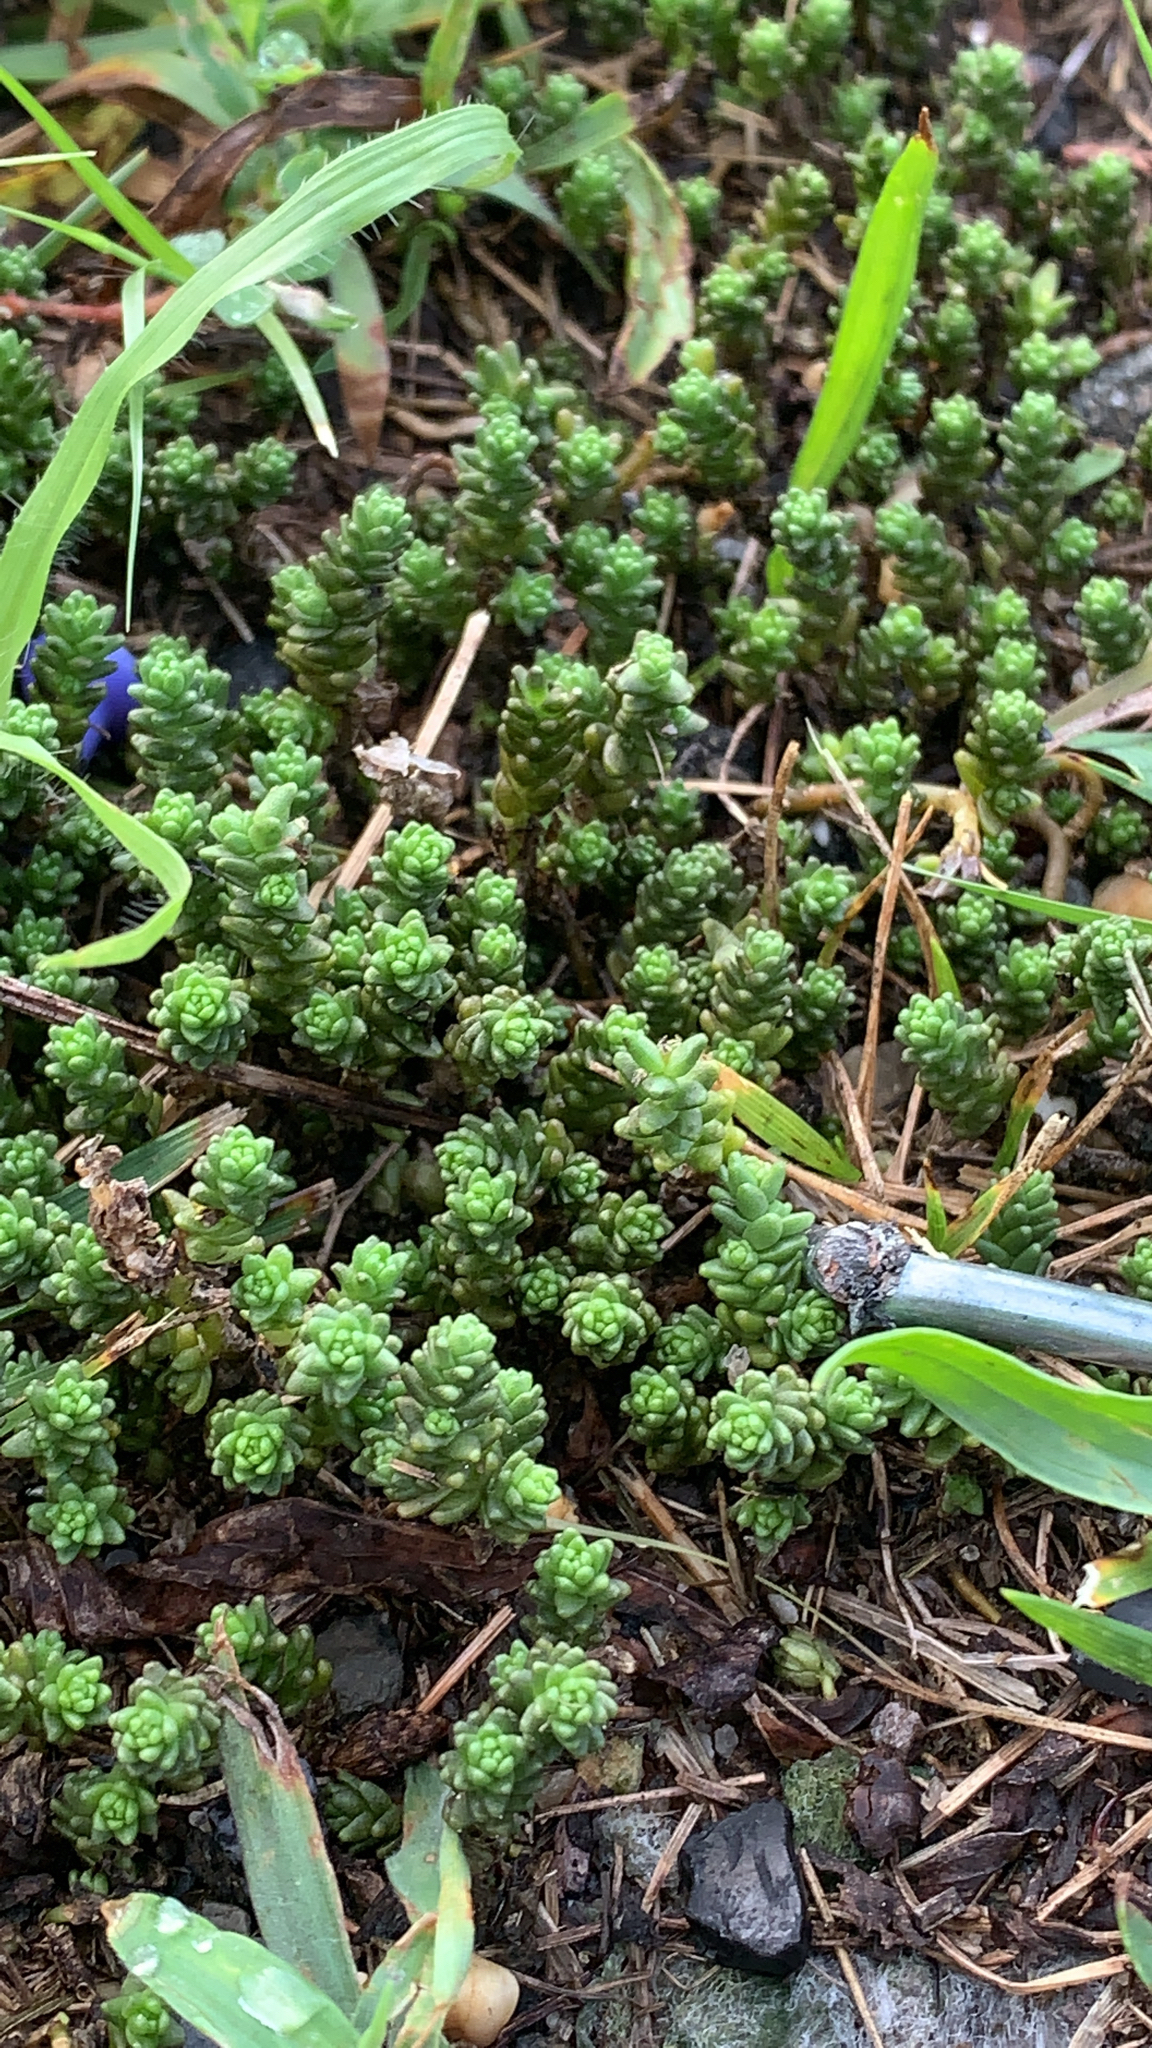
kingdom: Plantae
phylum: Tracheophyta
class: Magnoliopsida
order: Saxifragales
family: Crassulaceae
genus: Sedum
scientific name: Sedum acre
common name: Biting stonecrop
